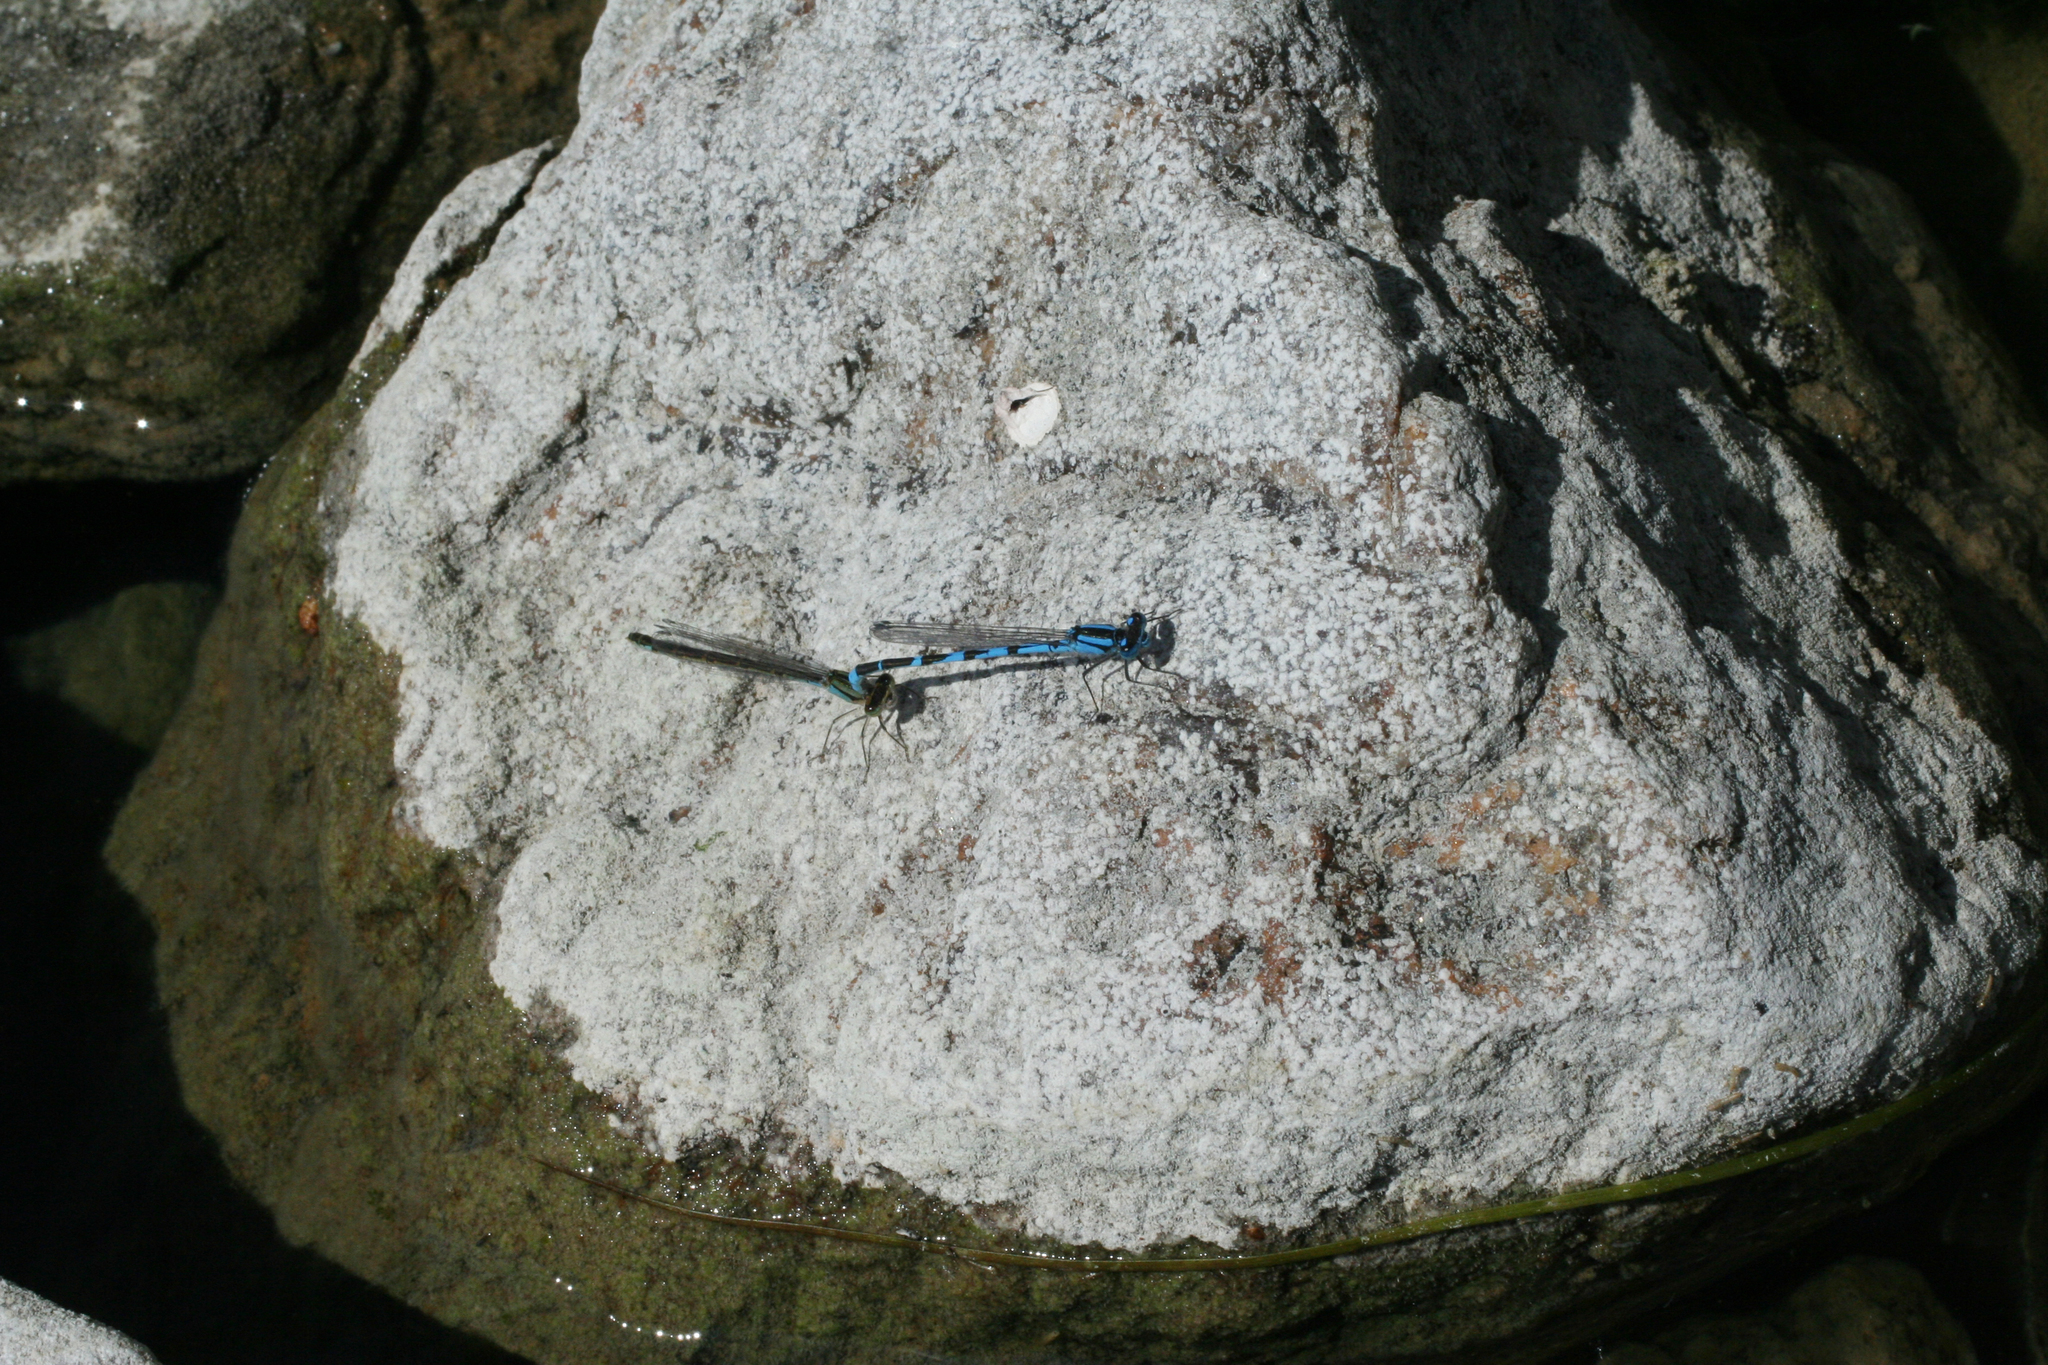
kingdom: Animalia
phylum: Arthropoda
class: Insecta
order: Odonata
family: Coenagrionidae
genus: Enallagma
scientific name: Enallagma cyathigerum
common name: Common blue damselfly
